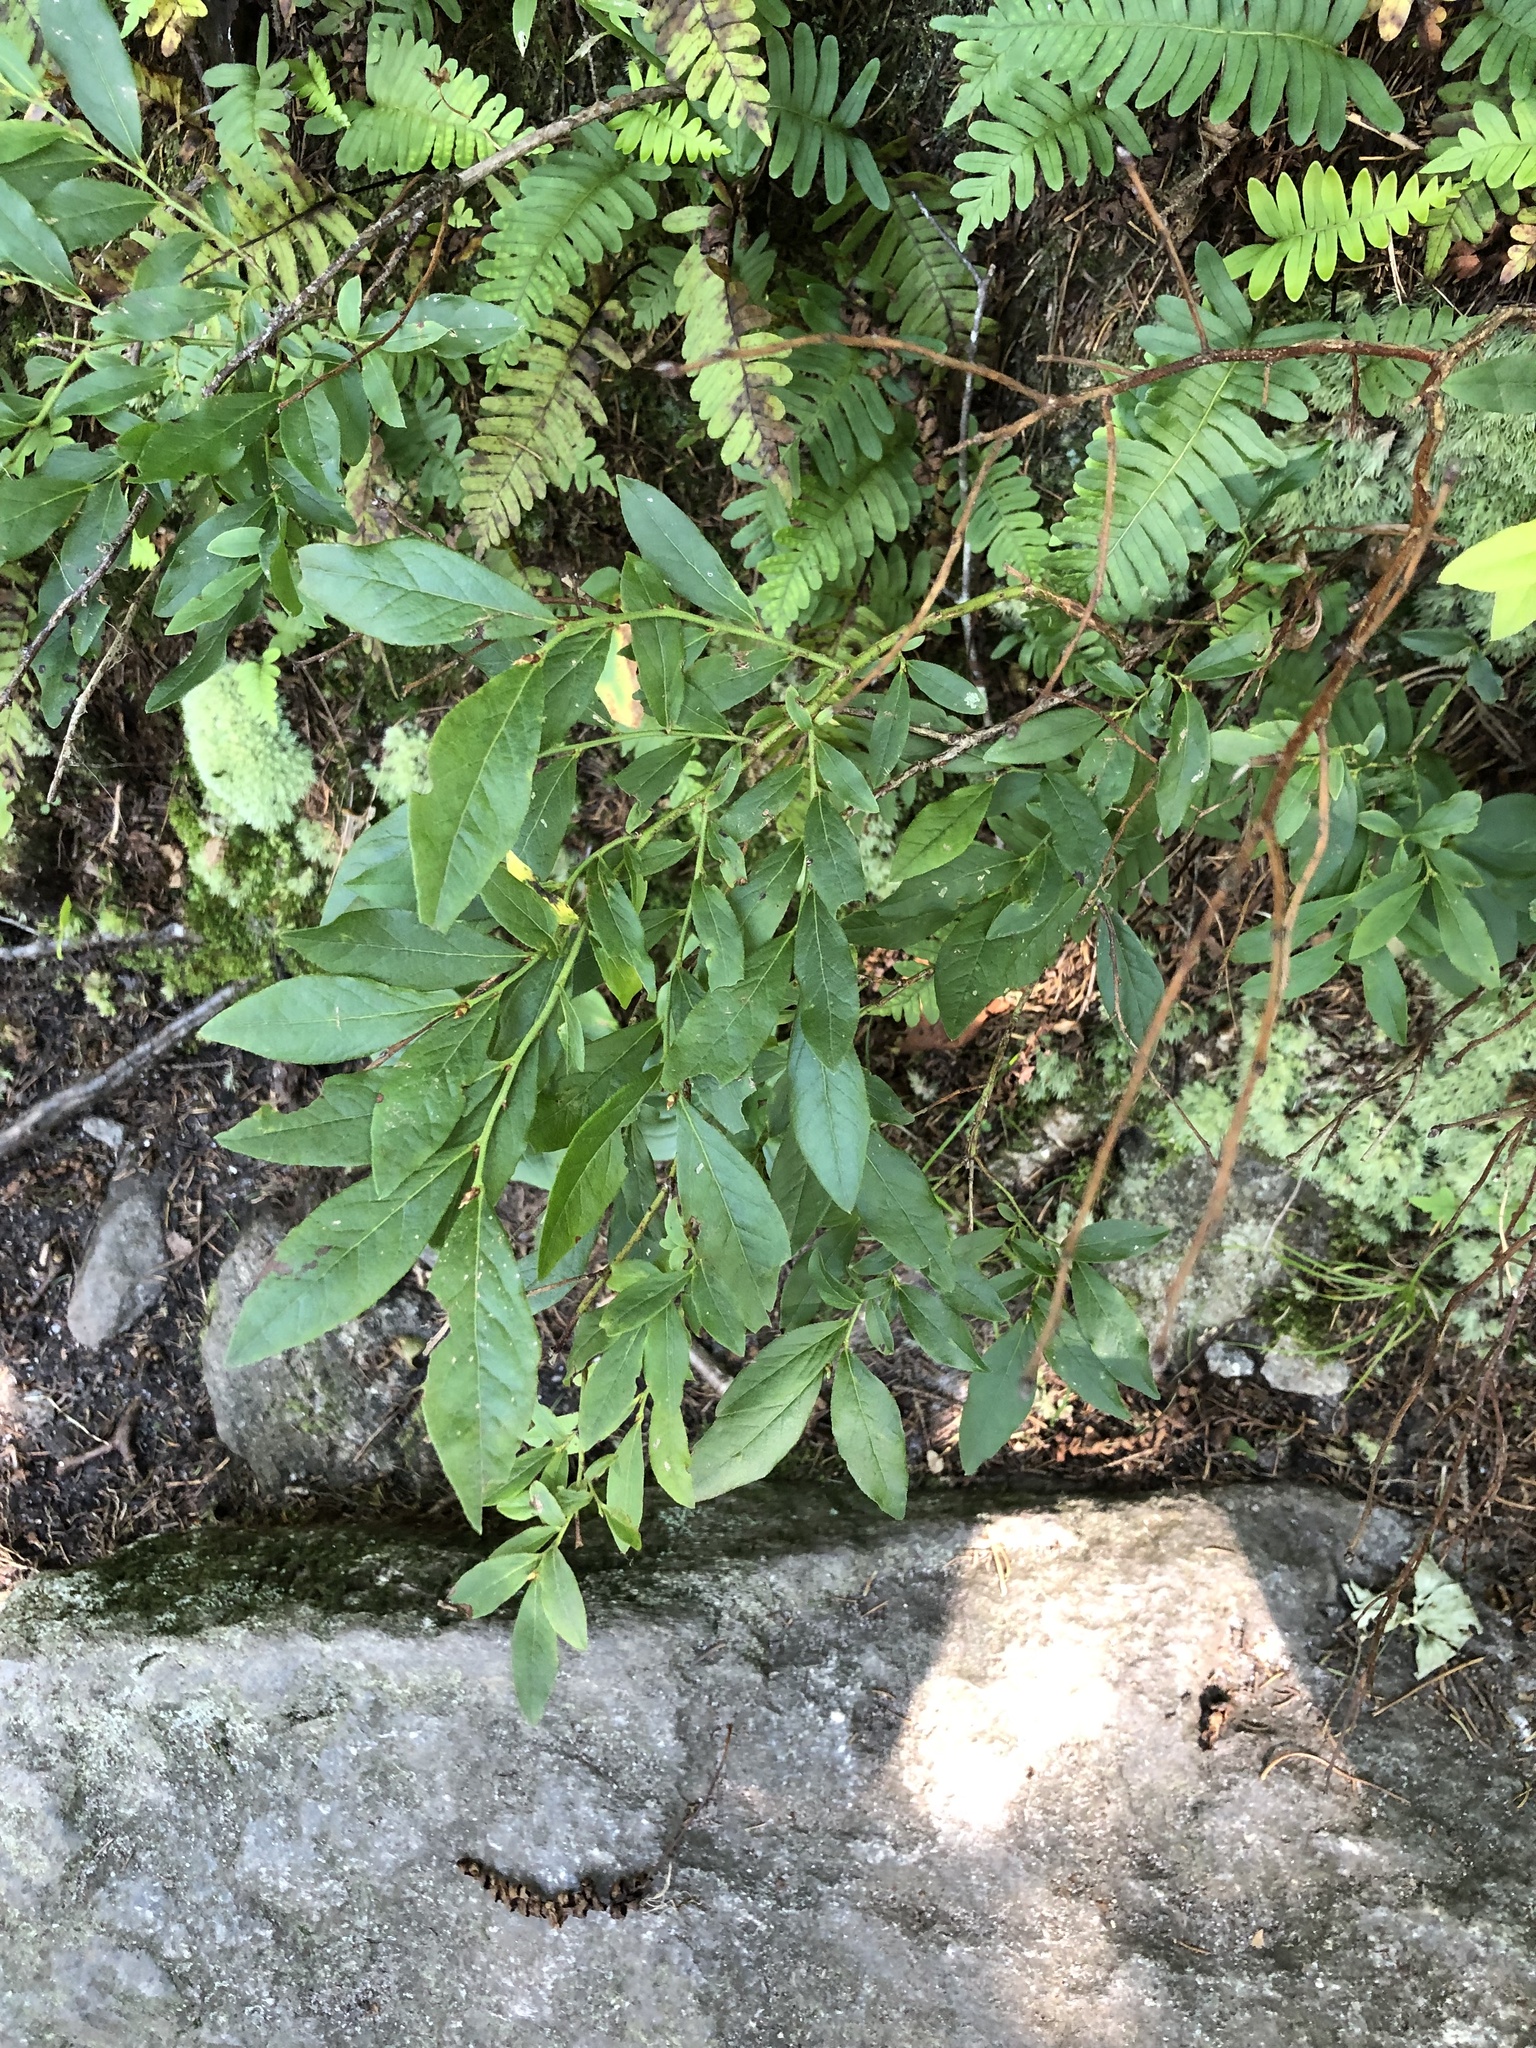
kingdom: Plantae
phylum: Tracheophyta
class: Magnoliopsida
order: Ericales
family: Ericaceae
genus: Vaccinium
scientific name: Vaccinium angustifolium
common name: Early lowbush blueberry
